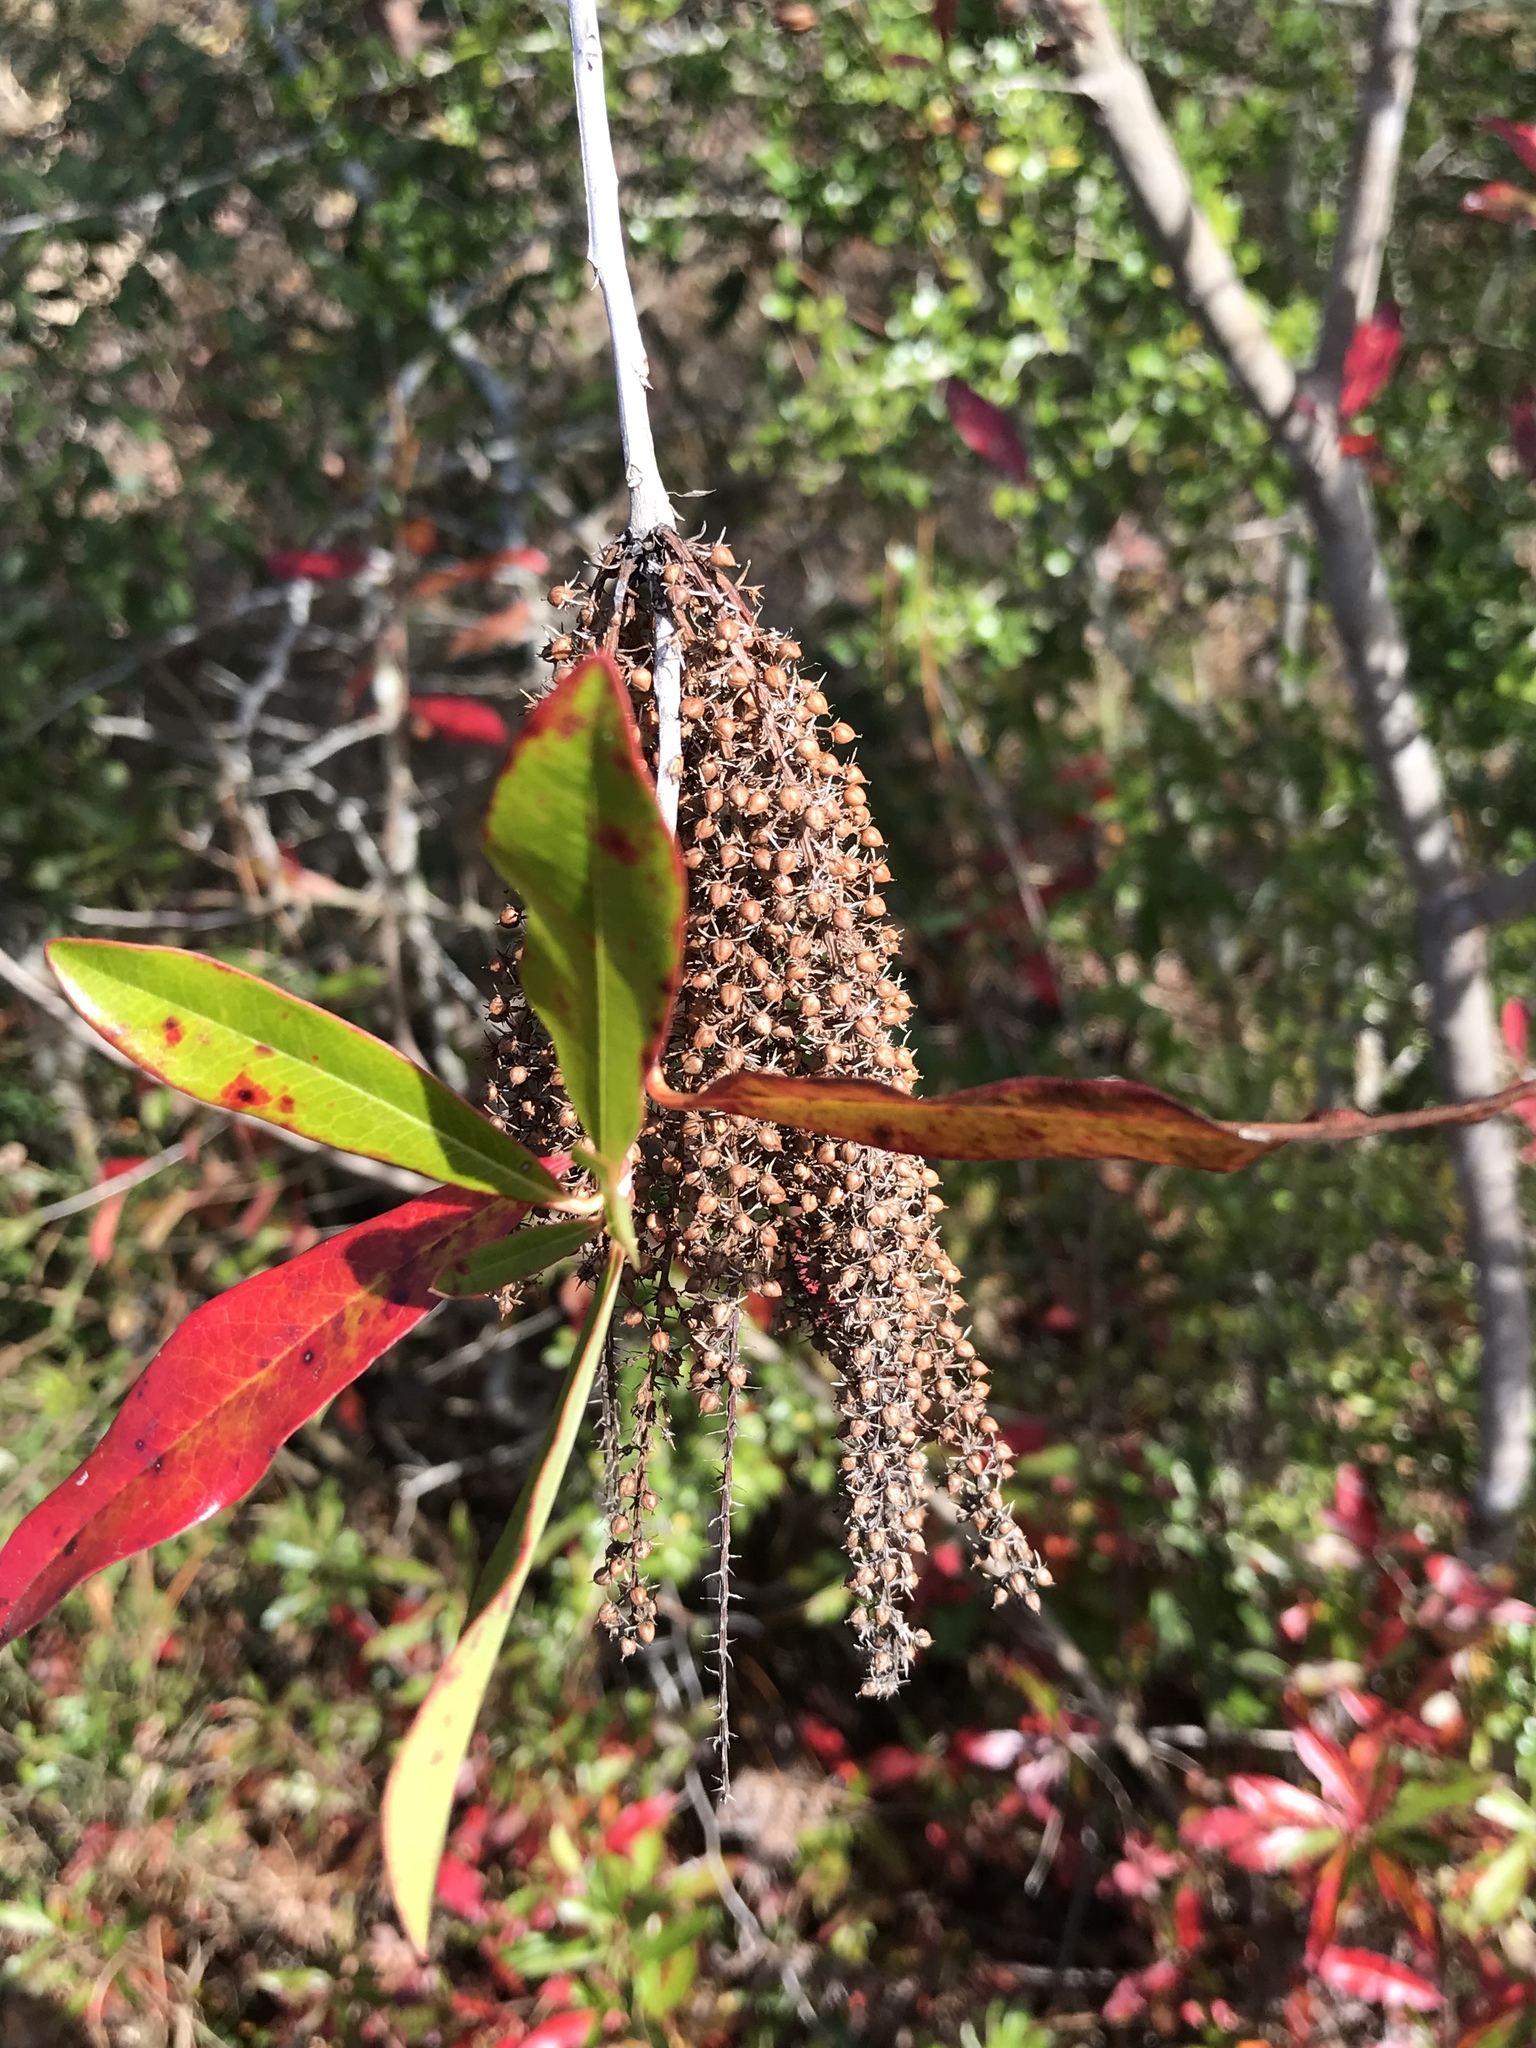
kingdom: Plantae
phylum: Tracheophyta
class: Magnoliopsida
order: Ericales
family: Cyrillaceae
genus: Cyrilla
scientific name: Cyrilla racemiflora
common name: Black titi
